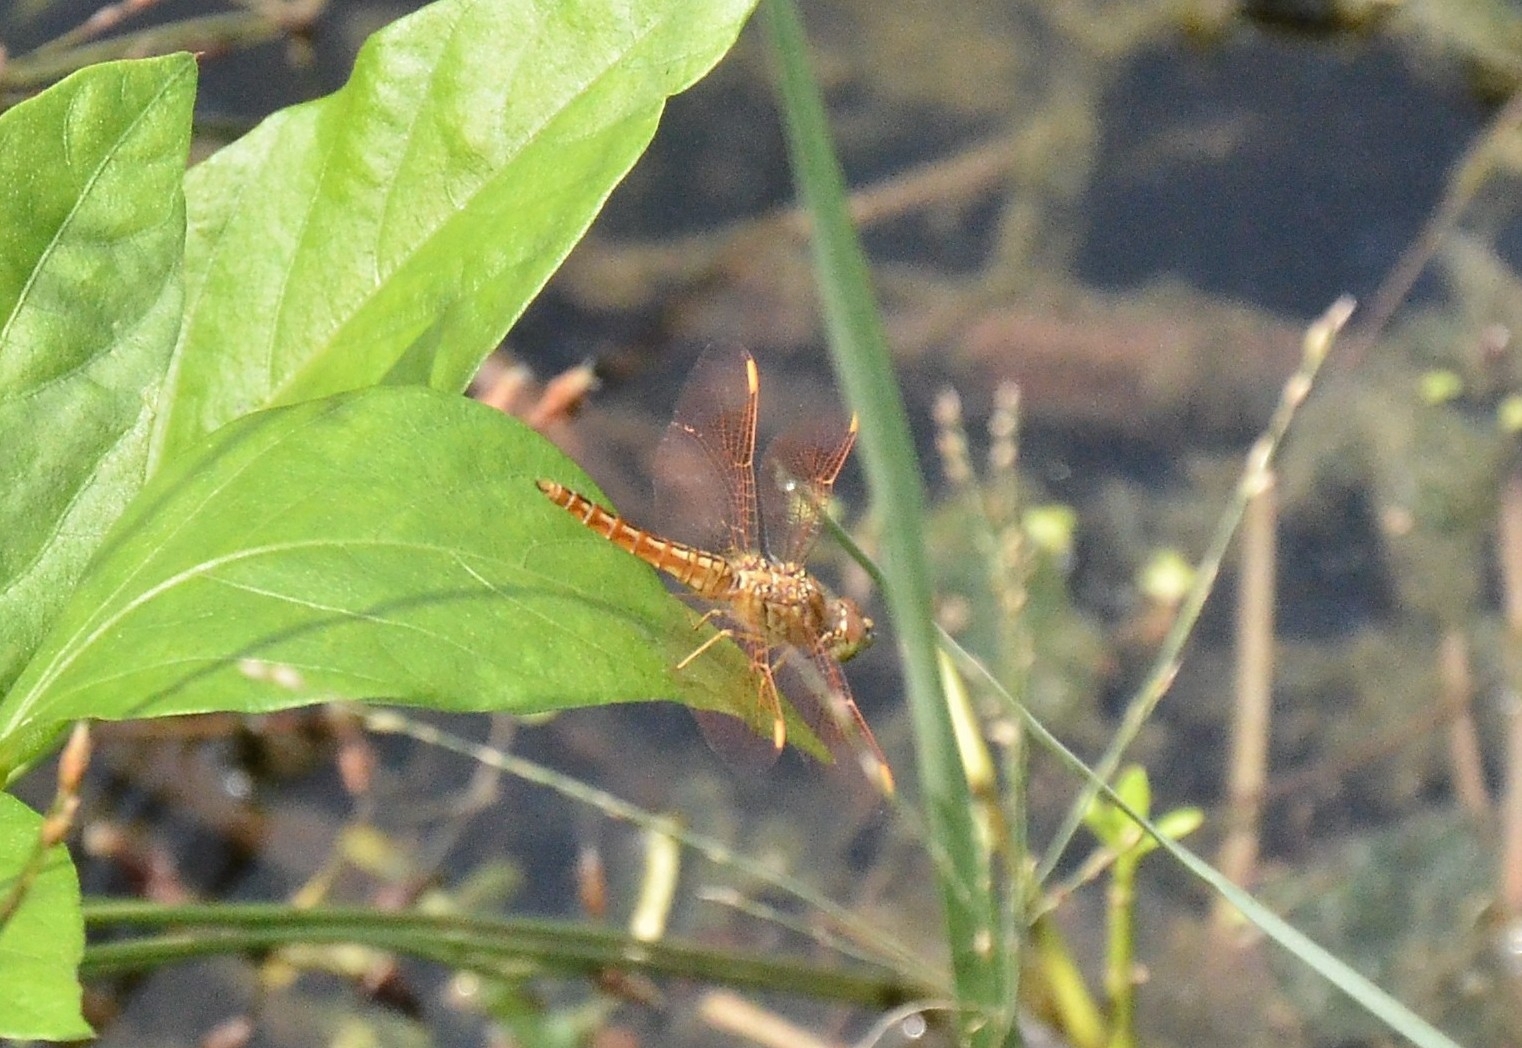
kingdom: Animalia
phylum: Arthropoda
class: Insecta
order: Odonata
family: Libellulidae
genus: Brachythemis
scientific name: Brachythemis contaminata
